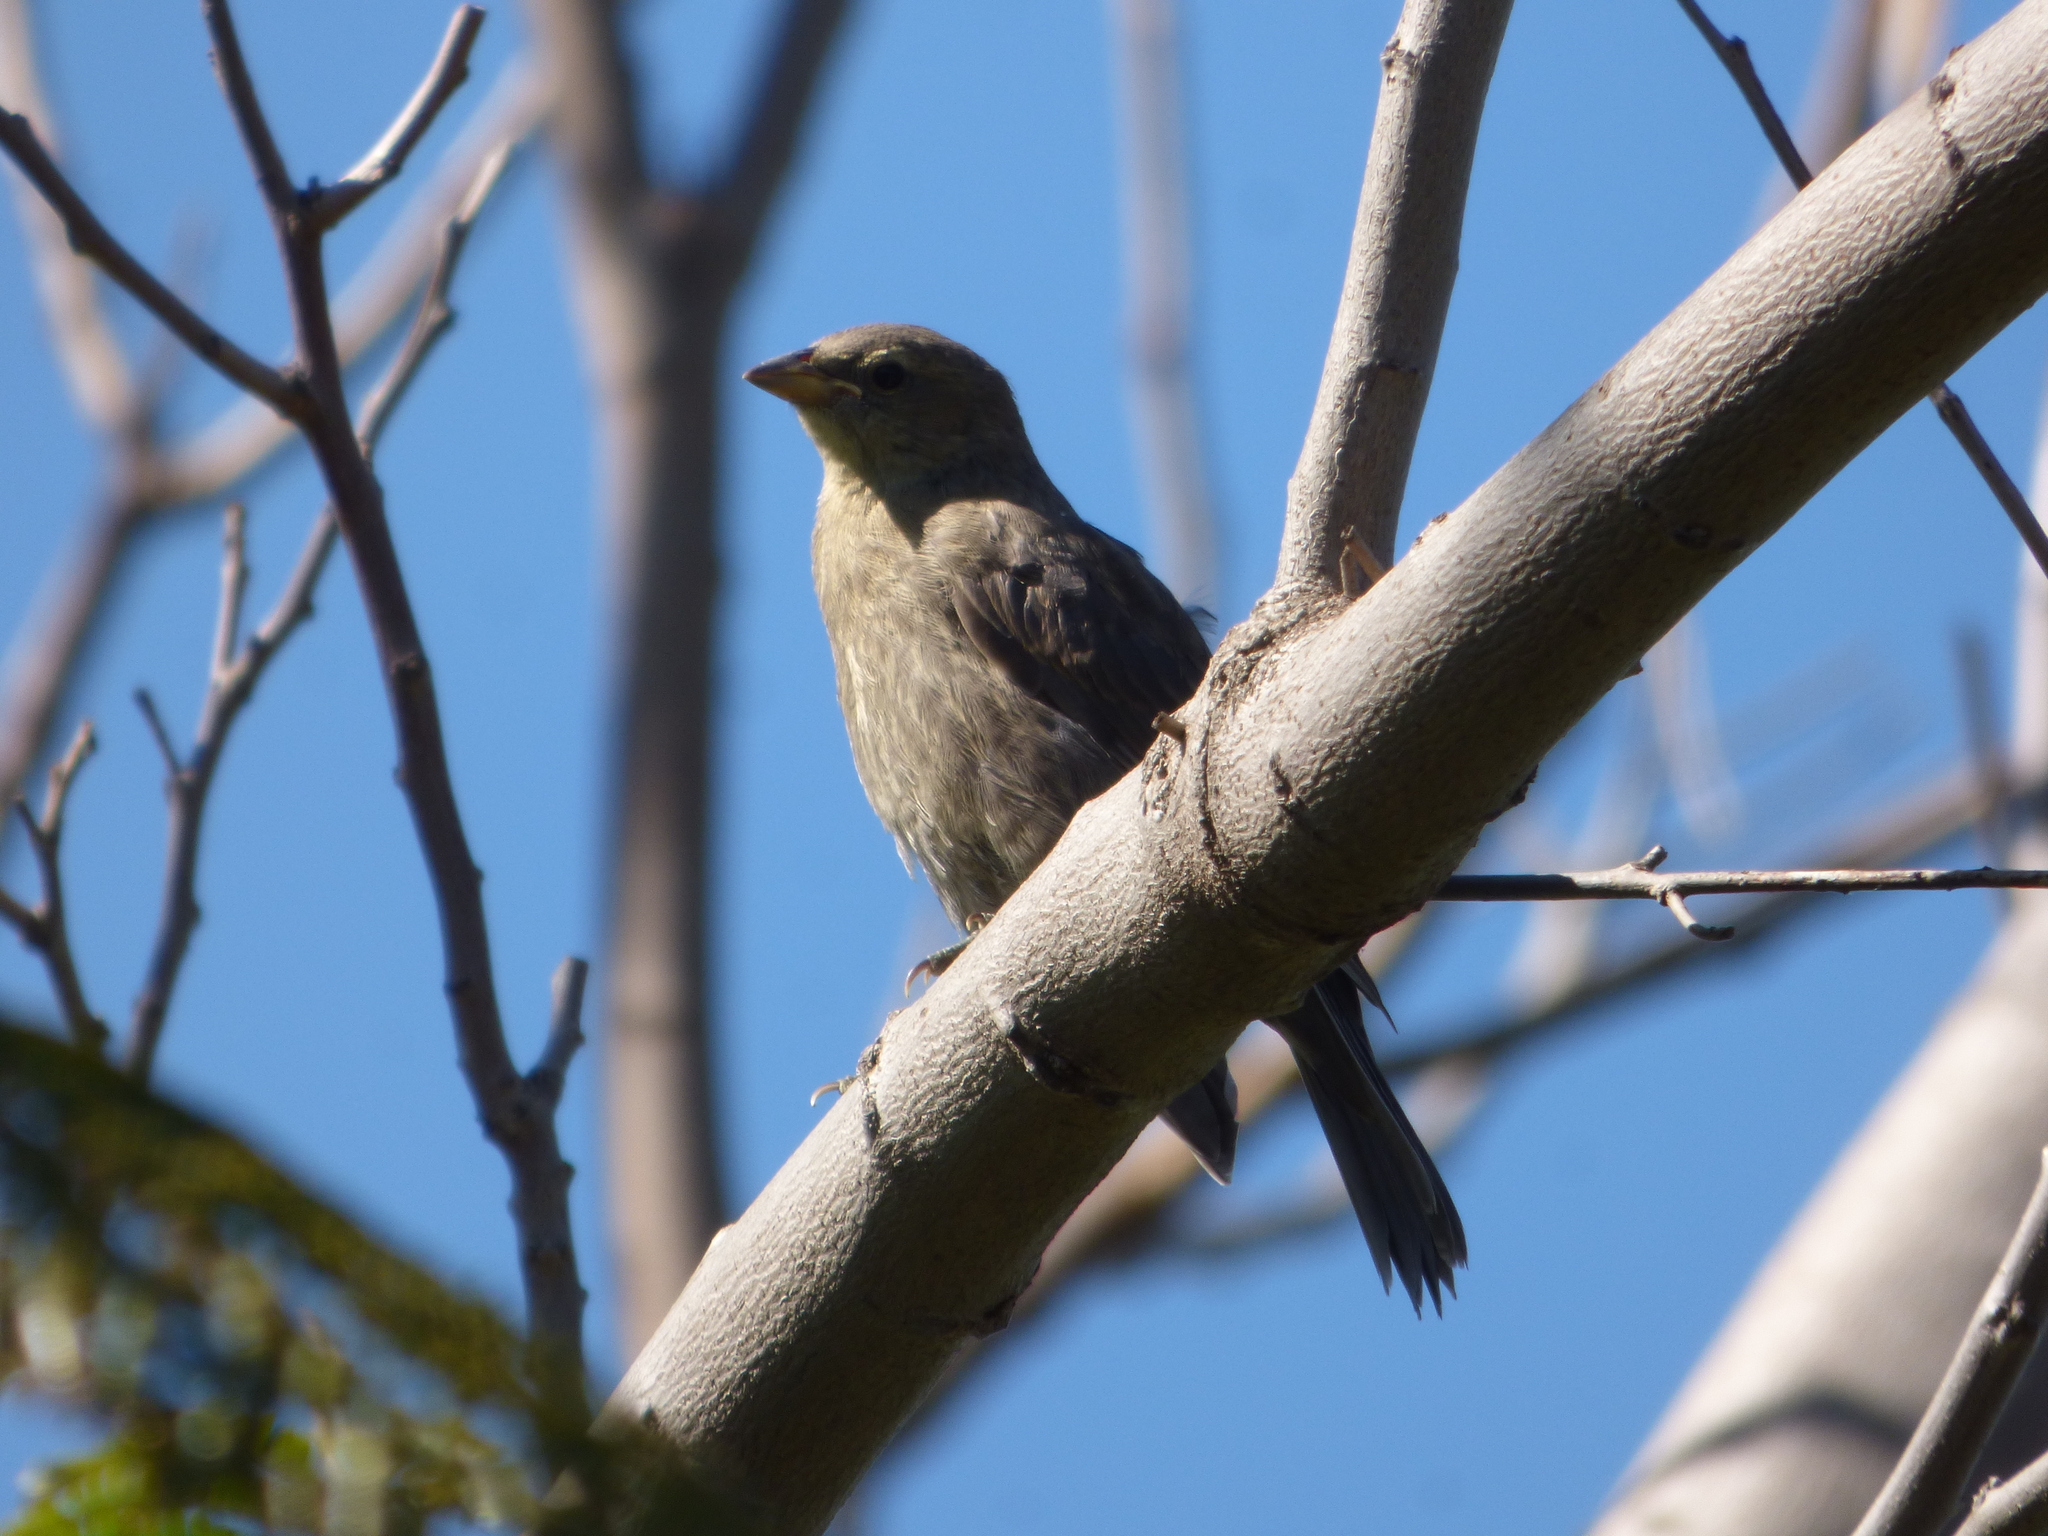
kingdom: Animalia
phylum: Chordata
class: Aves
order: Passeriformes
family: Icteridae
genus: Molothrus
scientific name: Molothrus bonariensis
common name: Shiny cowbird
